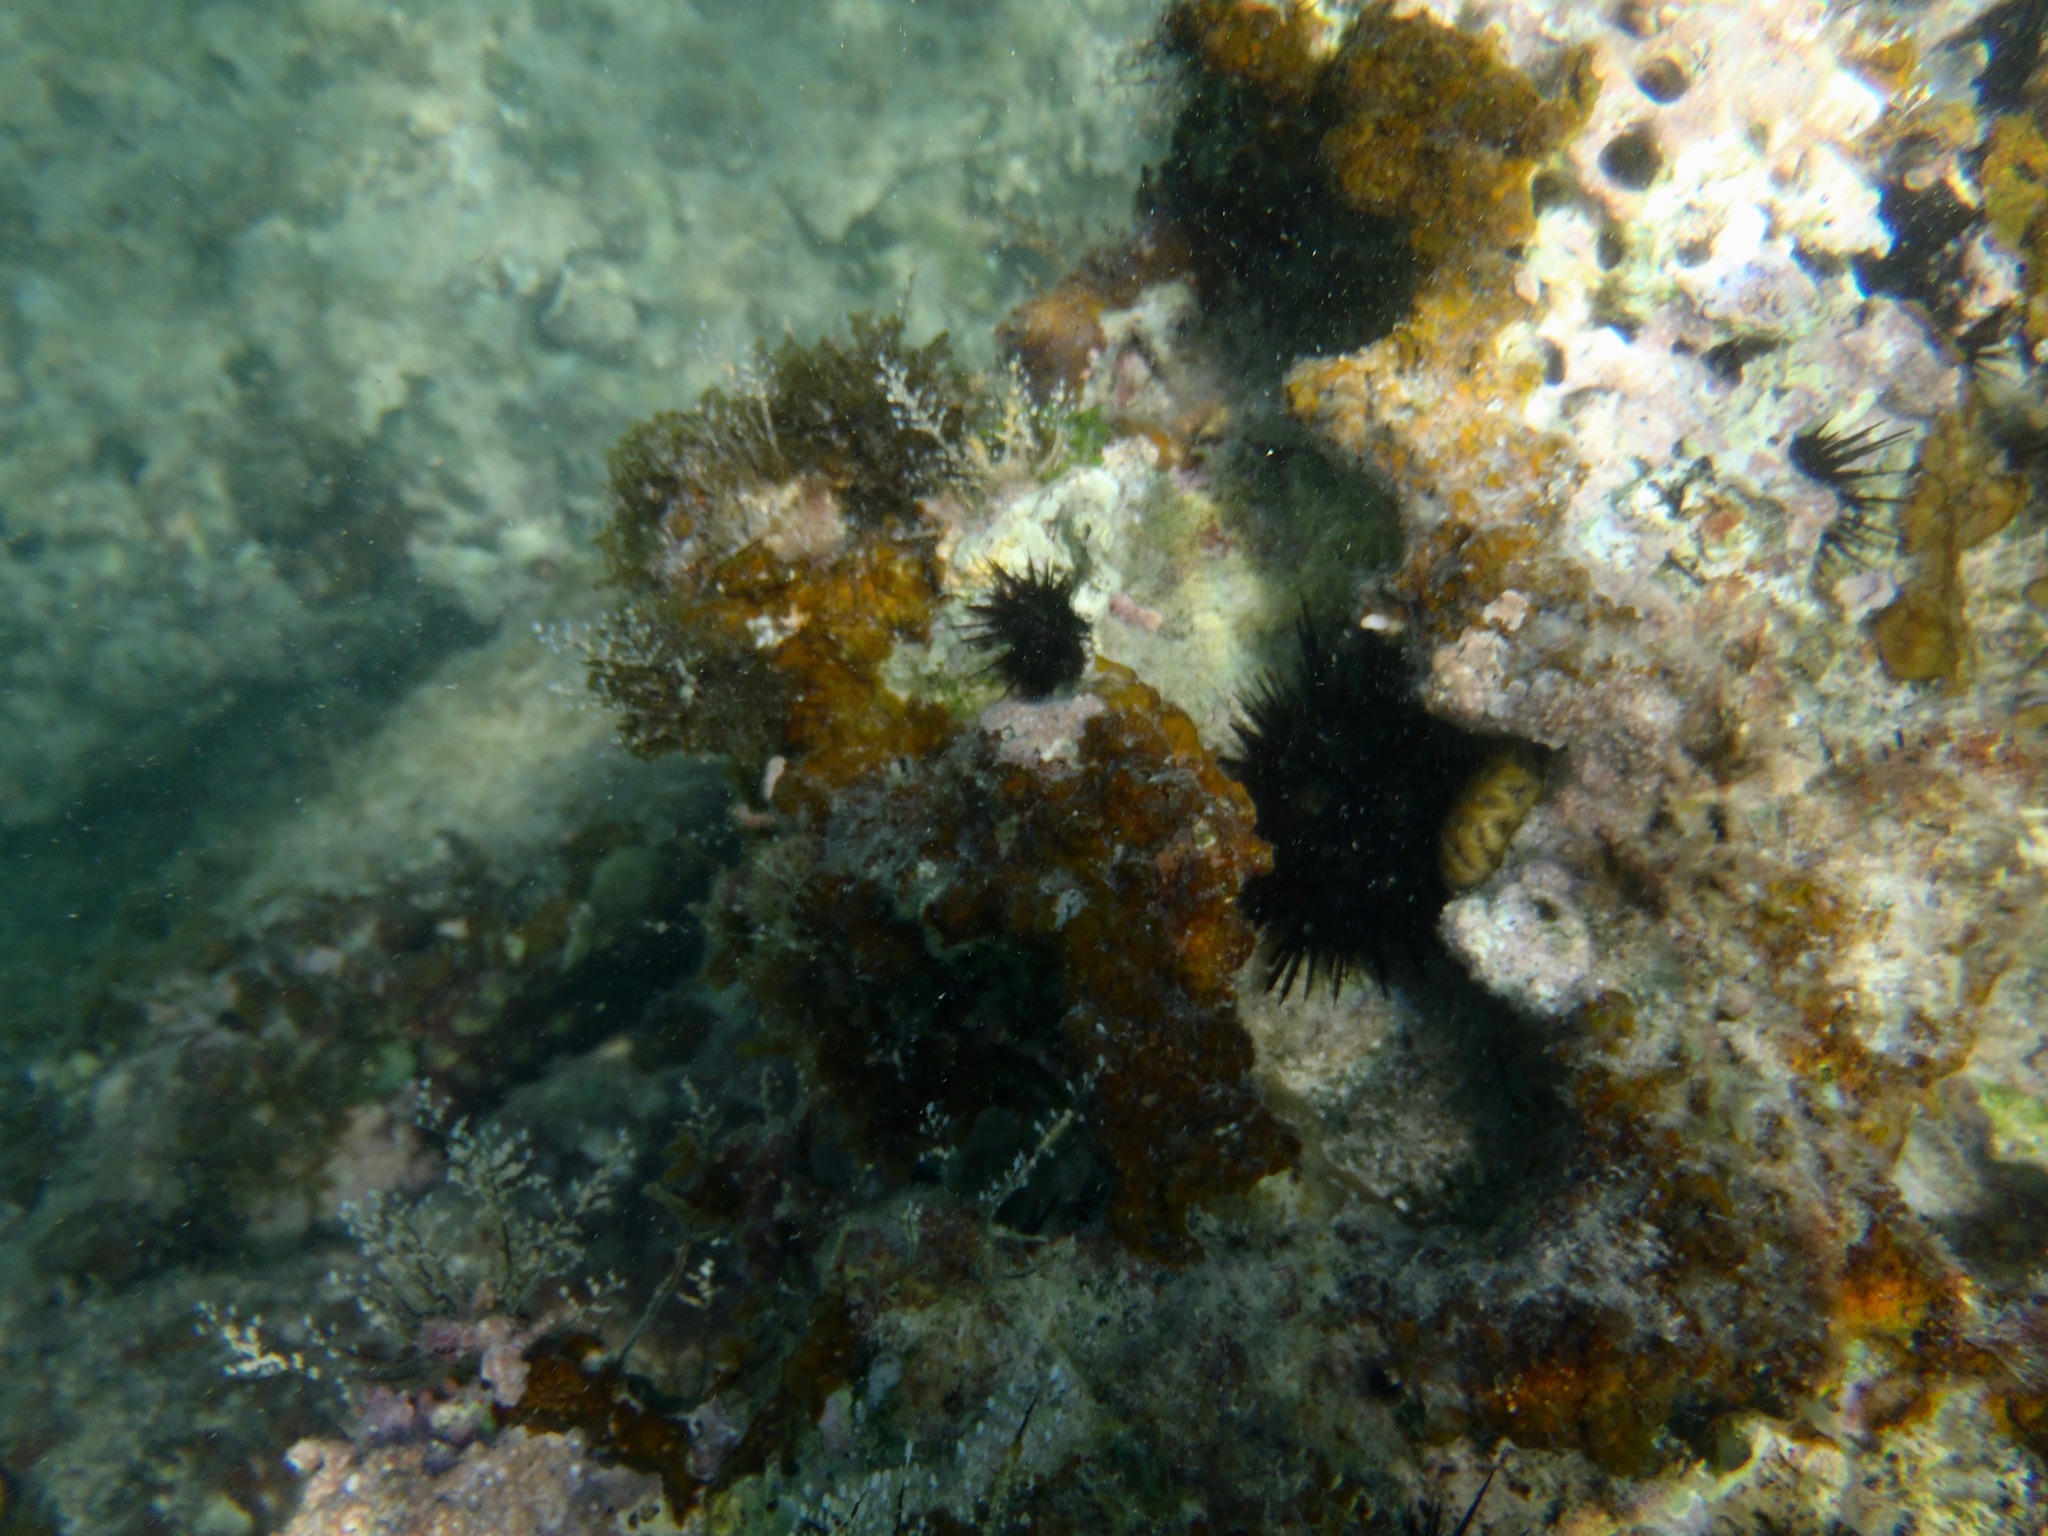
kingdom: Animalia
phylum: Echinodermata
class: Echinoidea
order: Camarodonta
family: Echinometridae
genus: Echinometra
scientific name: Echinometra lucunter
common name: Rock urchin
